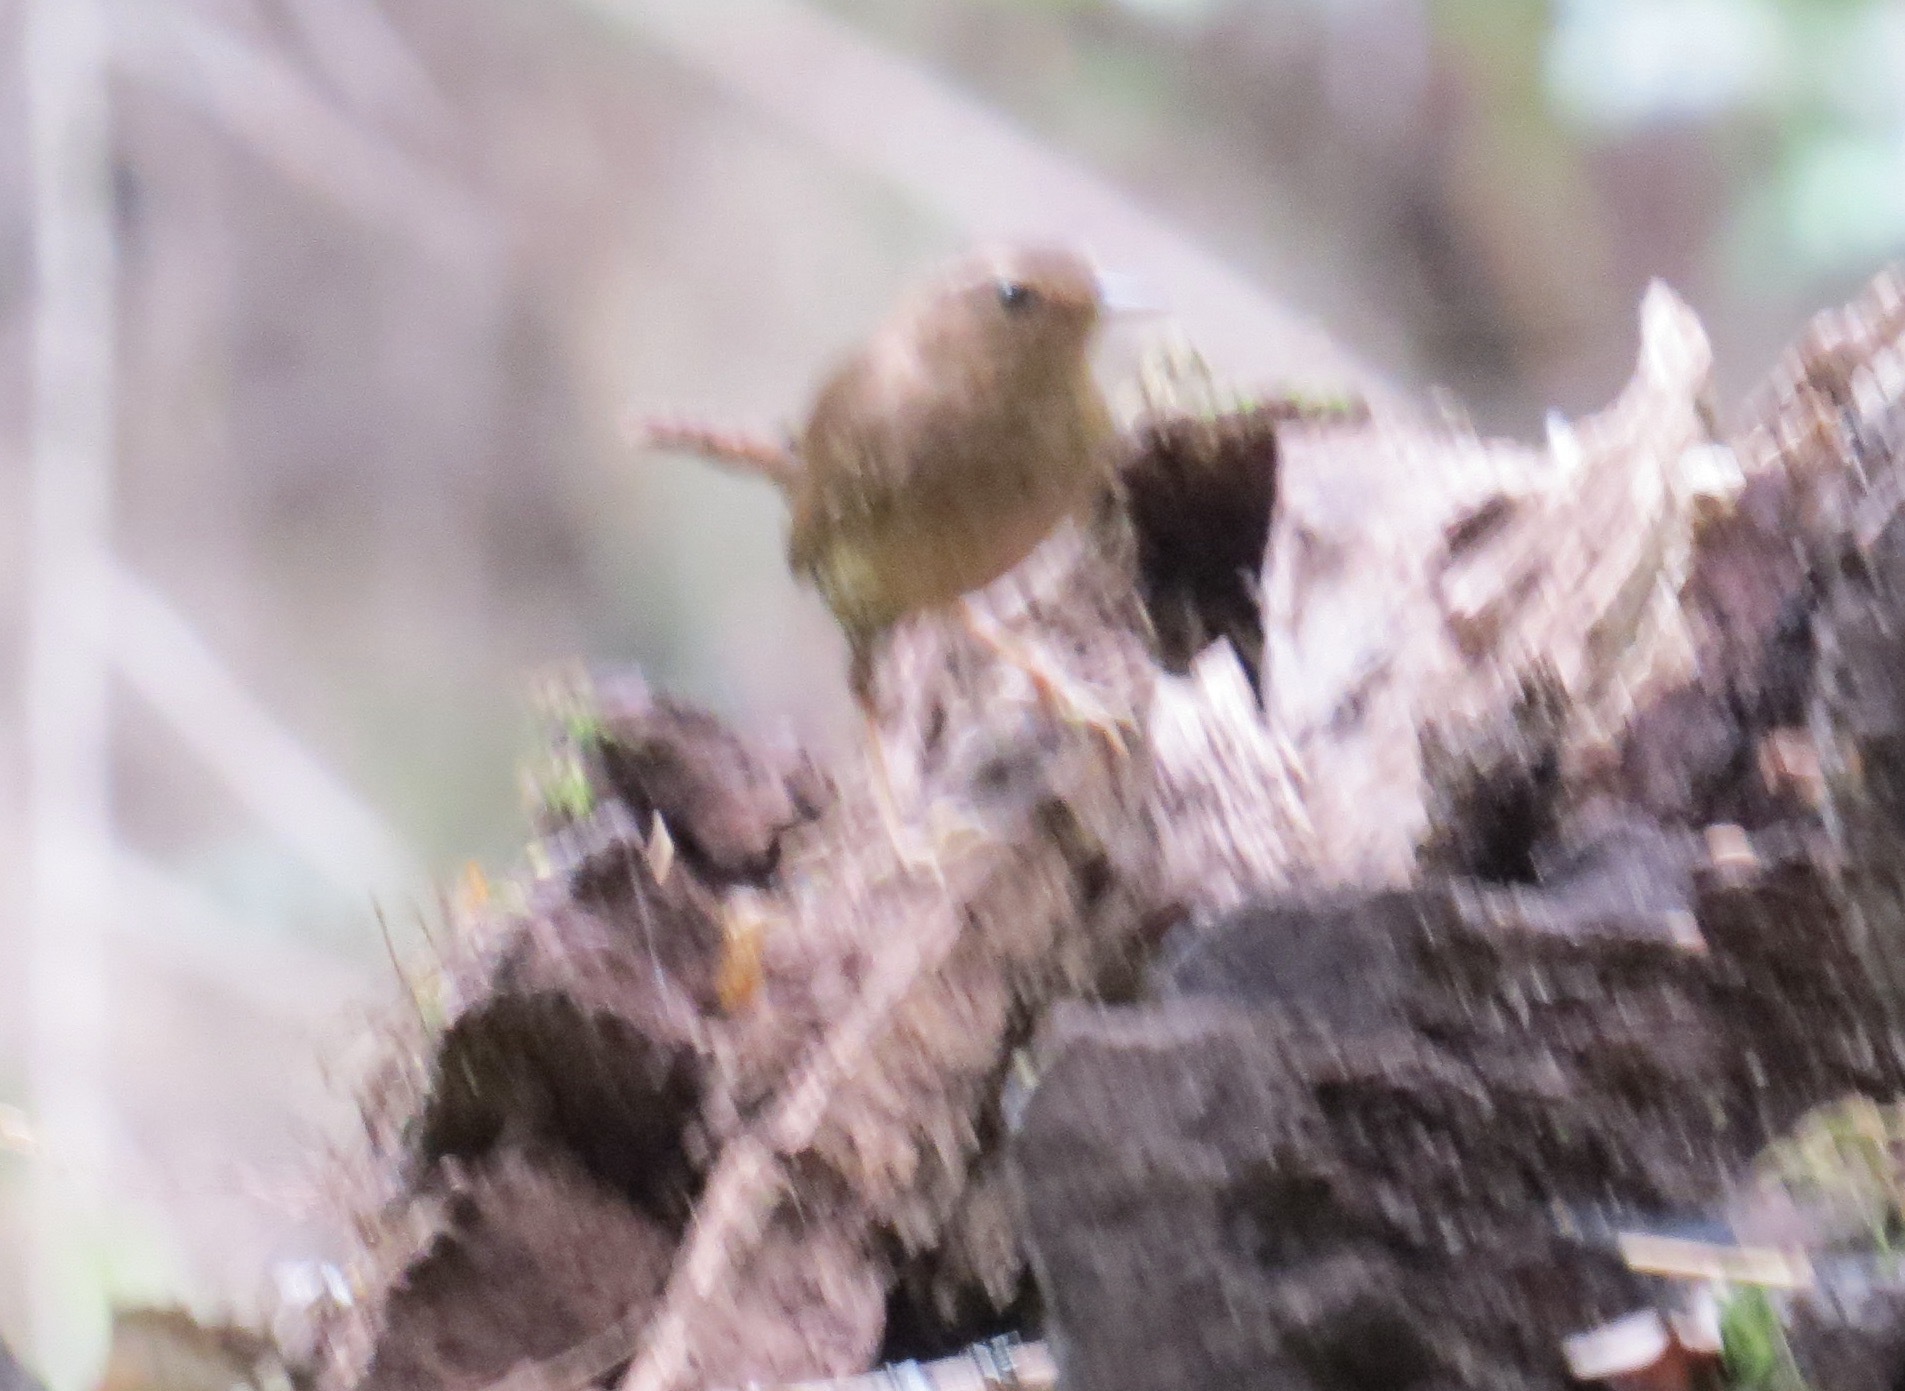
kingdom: Animalia
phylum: Chordata
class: Aves
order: Passeriformes
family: Troglodytidae
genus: Troglodytes
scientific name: Troglodytes pacificus
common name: Pacific wren
